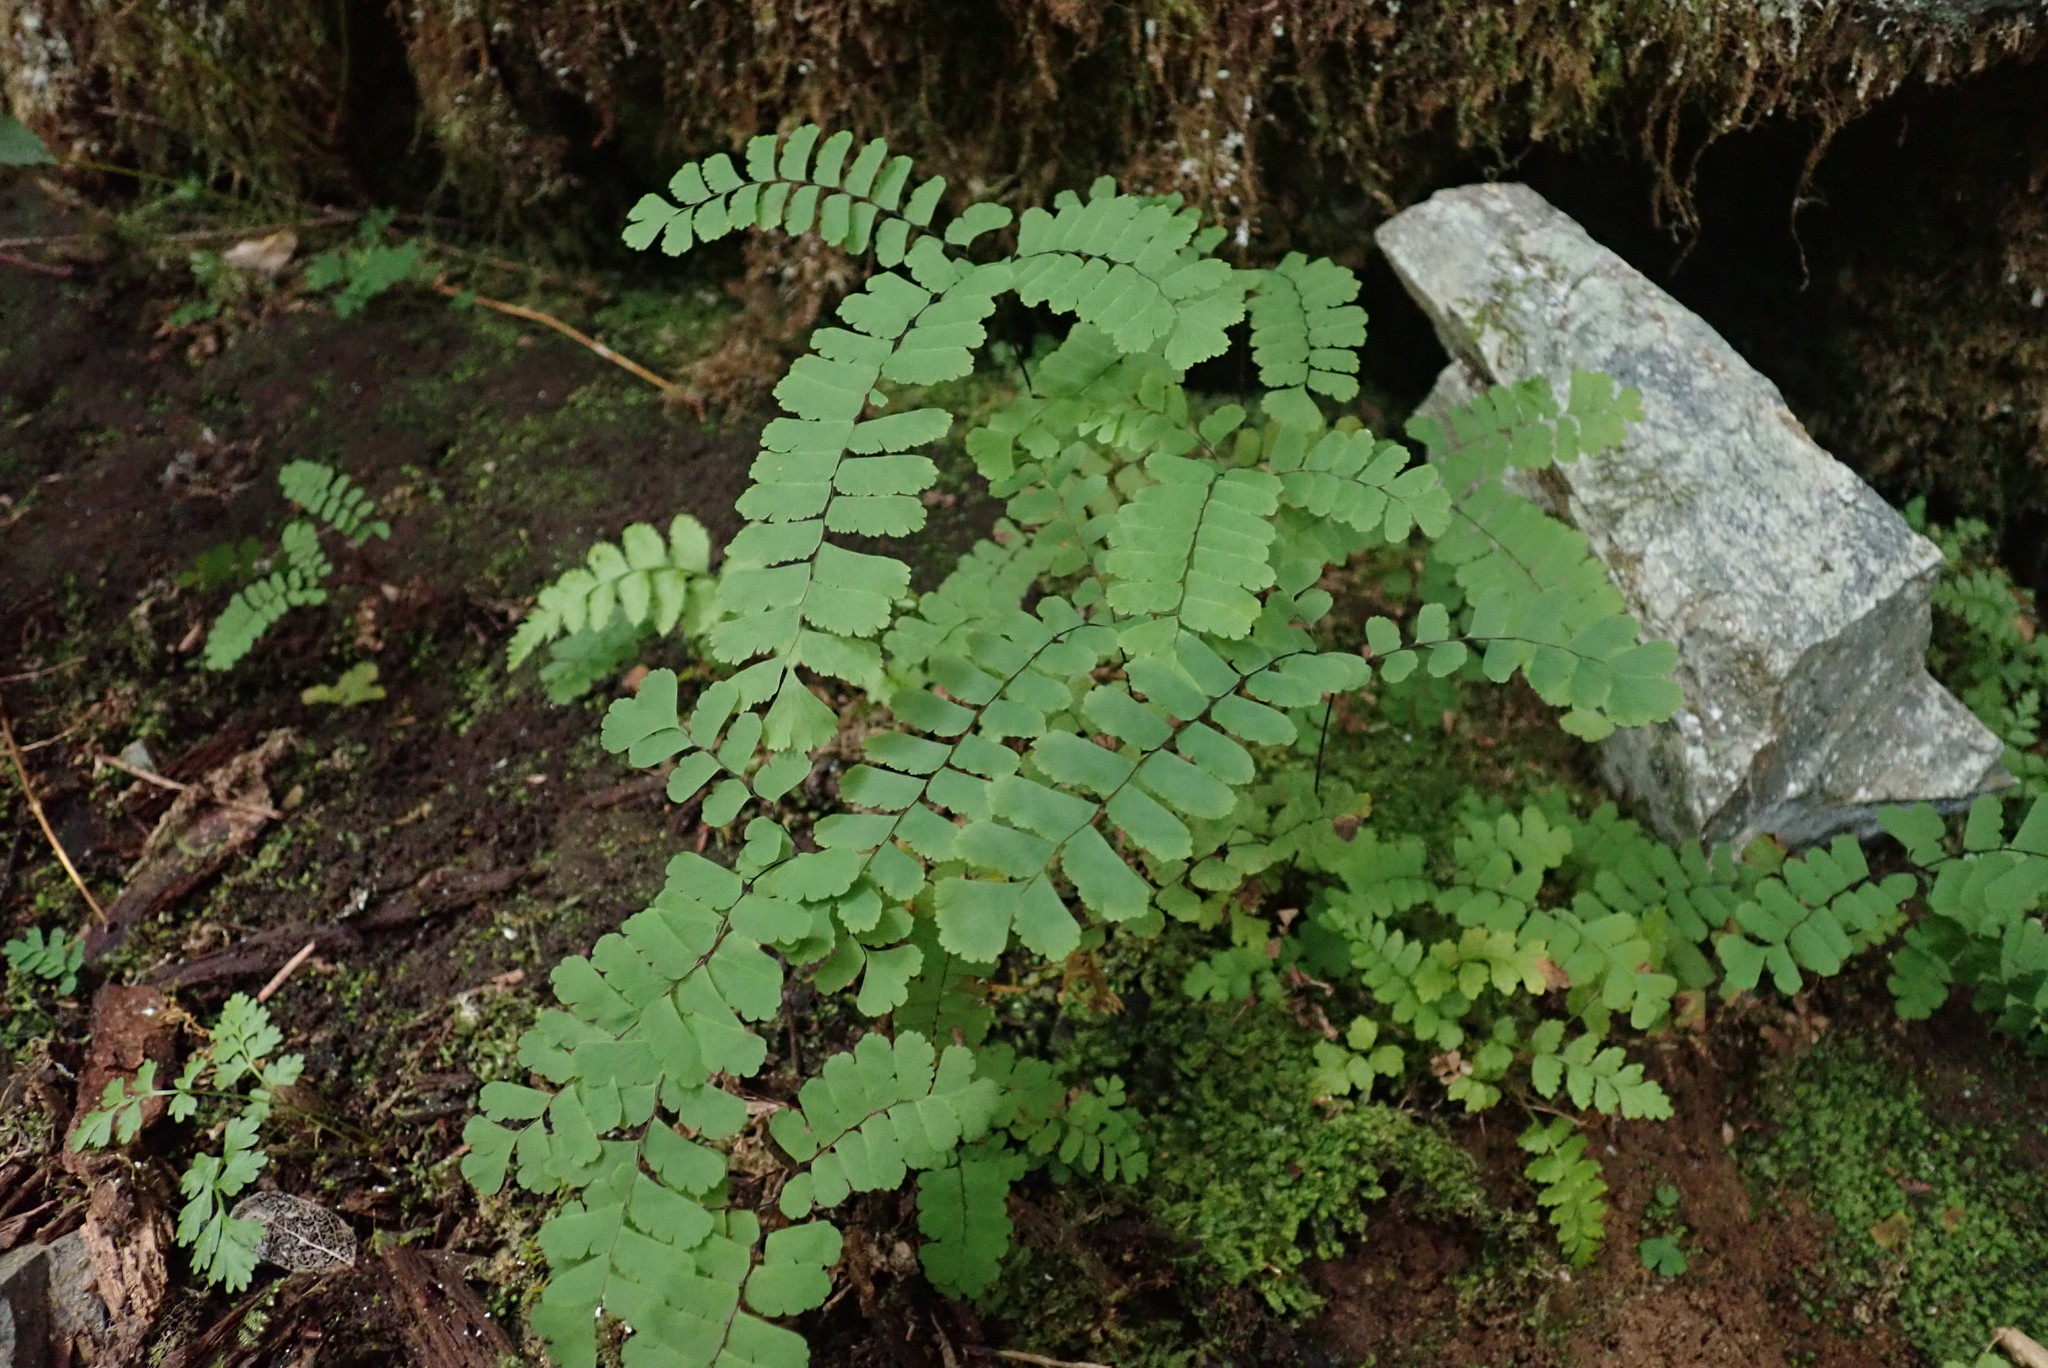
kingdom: Plantae
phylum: Tracheophyta
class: Polypodiopsida
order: Polypodiales
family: Pteridaceae
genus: Adiantum
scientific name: Adiantum aleuticum
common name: Aleutian maidenhair fern
